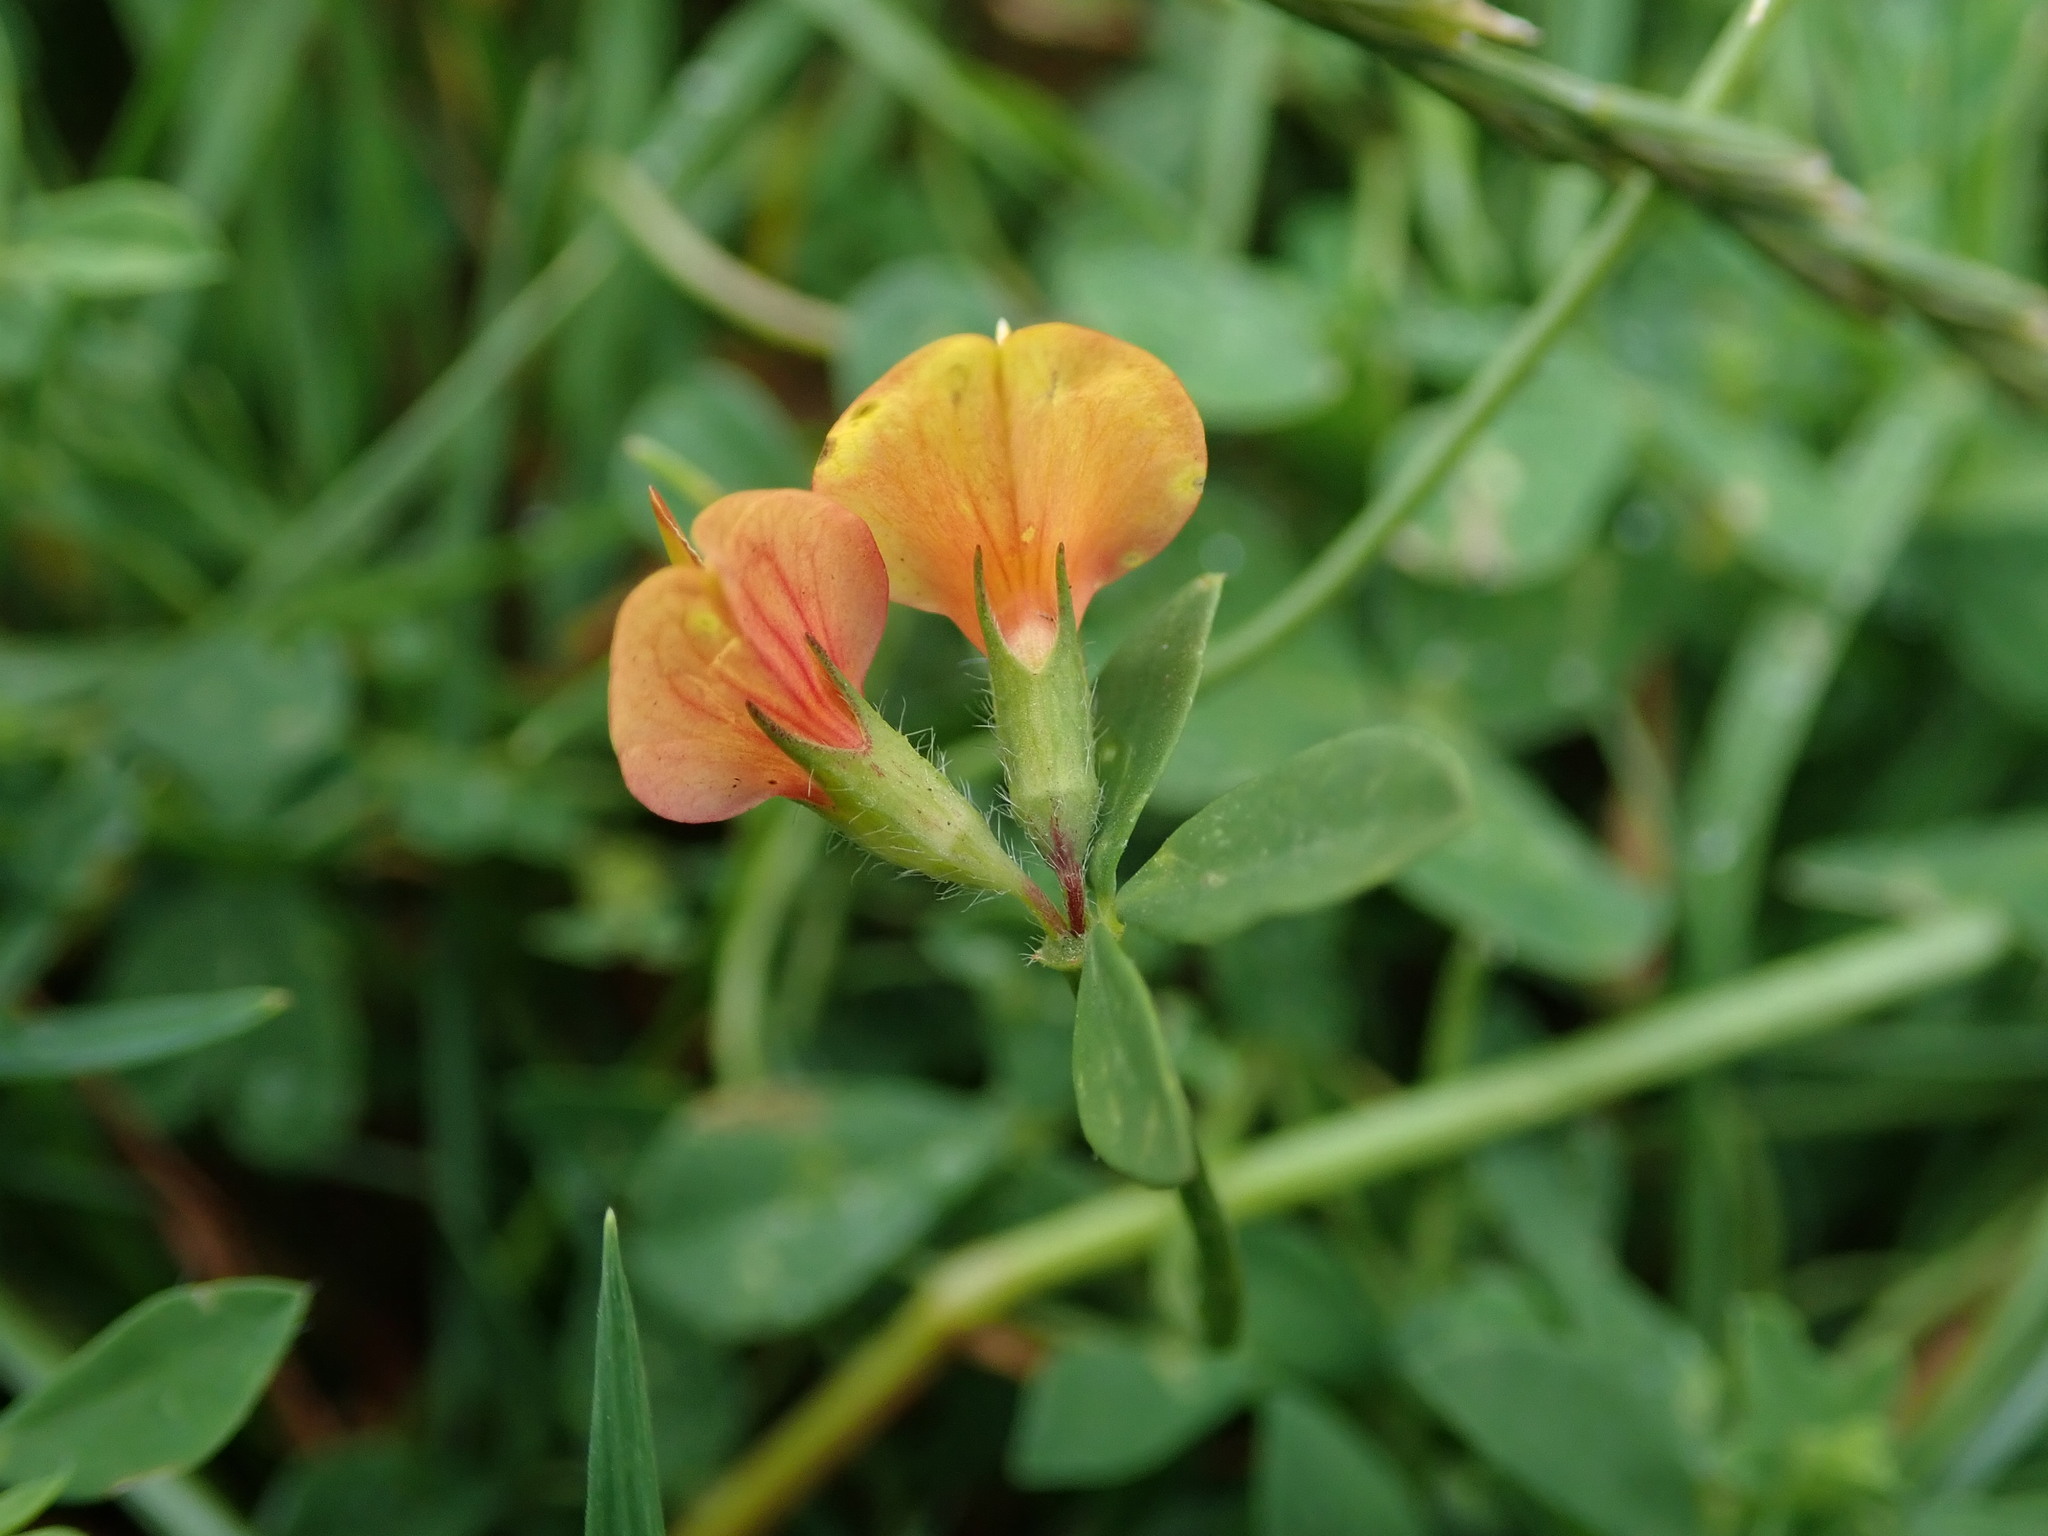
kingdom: Plantae
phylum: Tracheophyta
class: Magnoliopsida
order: Fabales
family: Fabaceae
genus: Lotus
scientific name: Lotus corniculatus
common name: Common bird's-foot-trefoil
